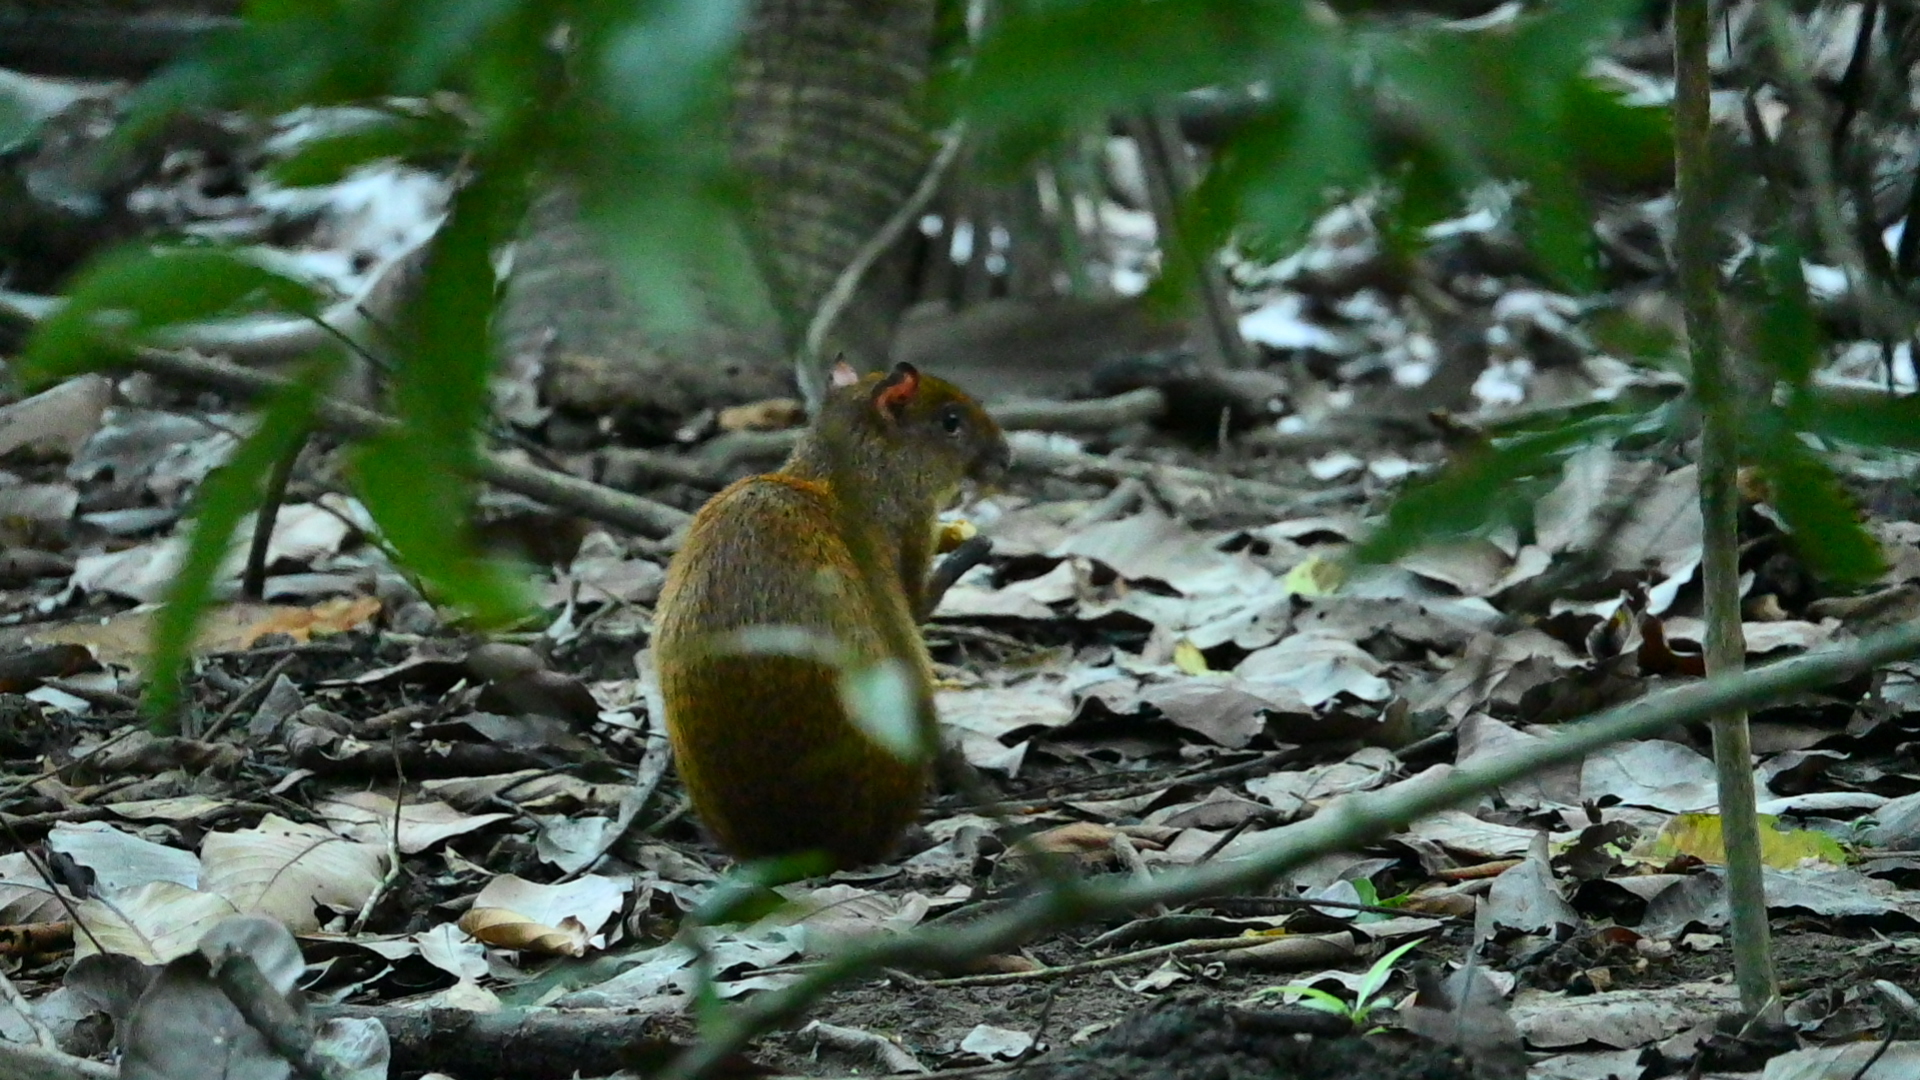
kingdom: Animalia
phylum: Chordata
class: Mammalia
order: Rodentia
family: Dasyproctidae
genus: Dasyprocta
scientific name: Dasyprocta punctata
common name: Central american agouti
